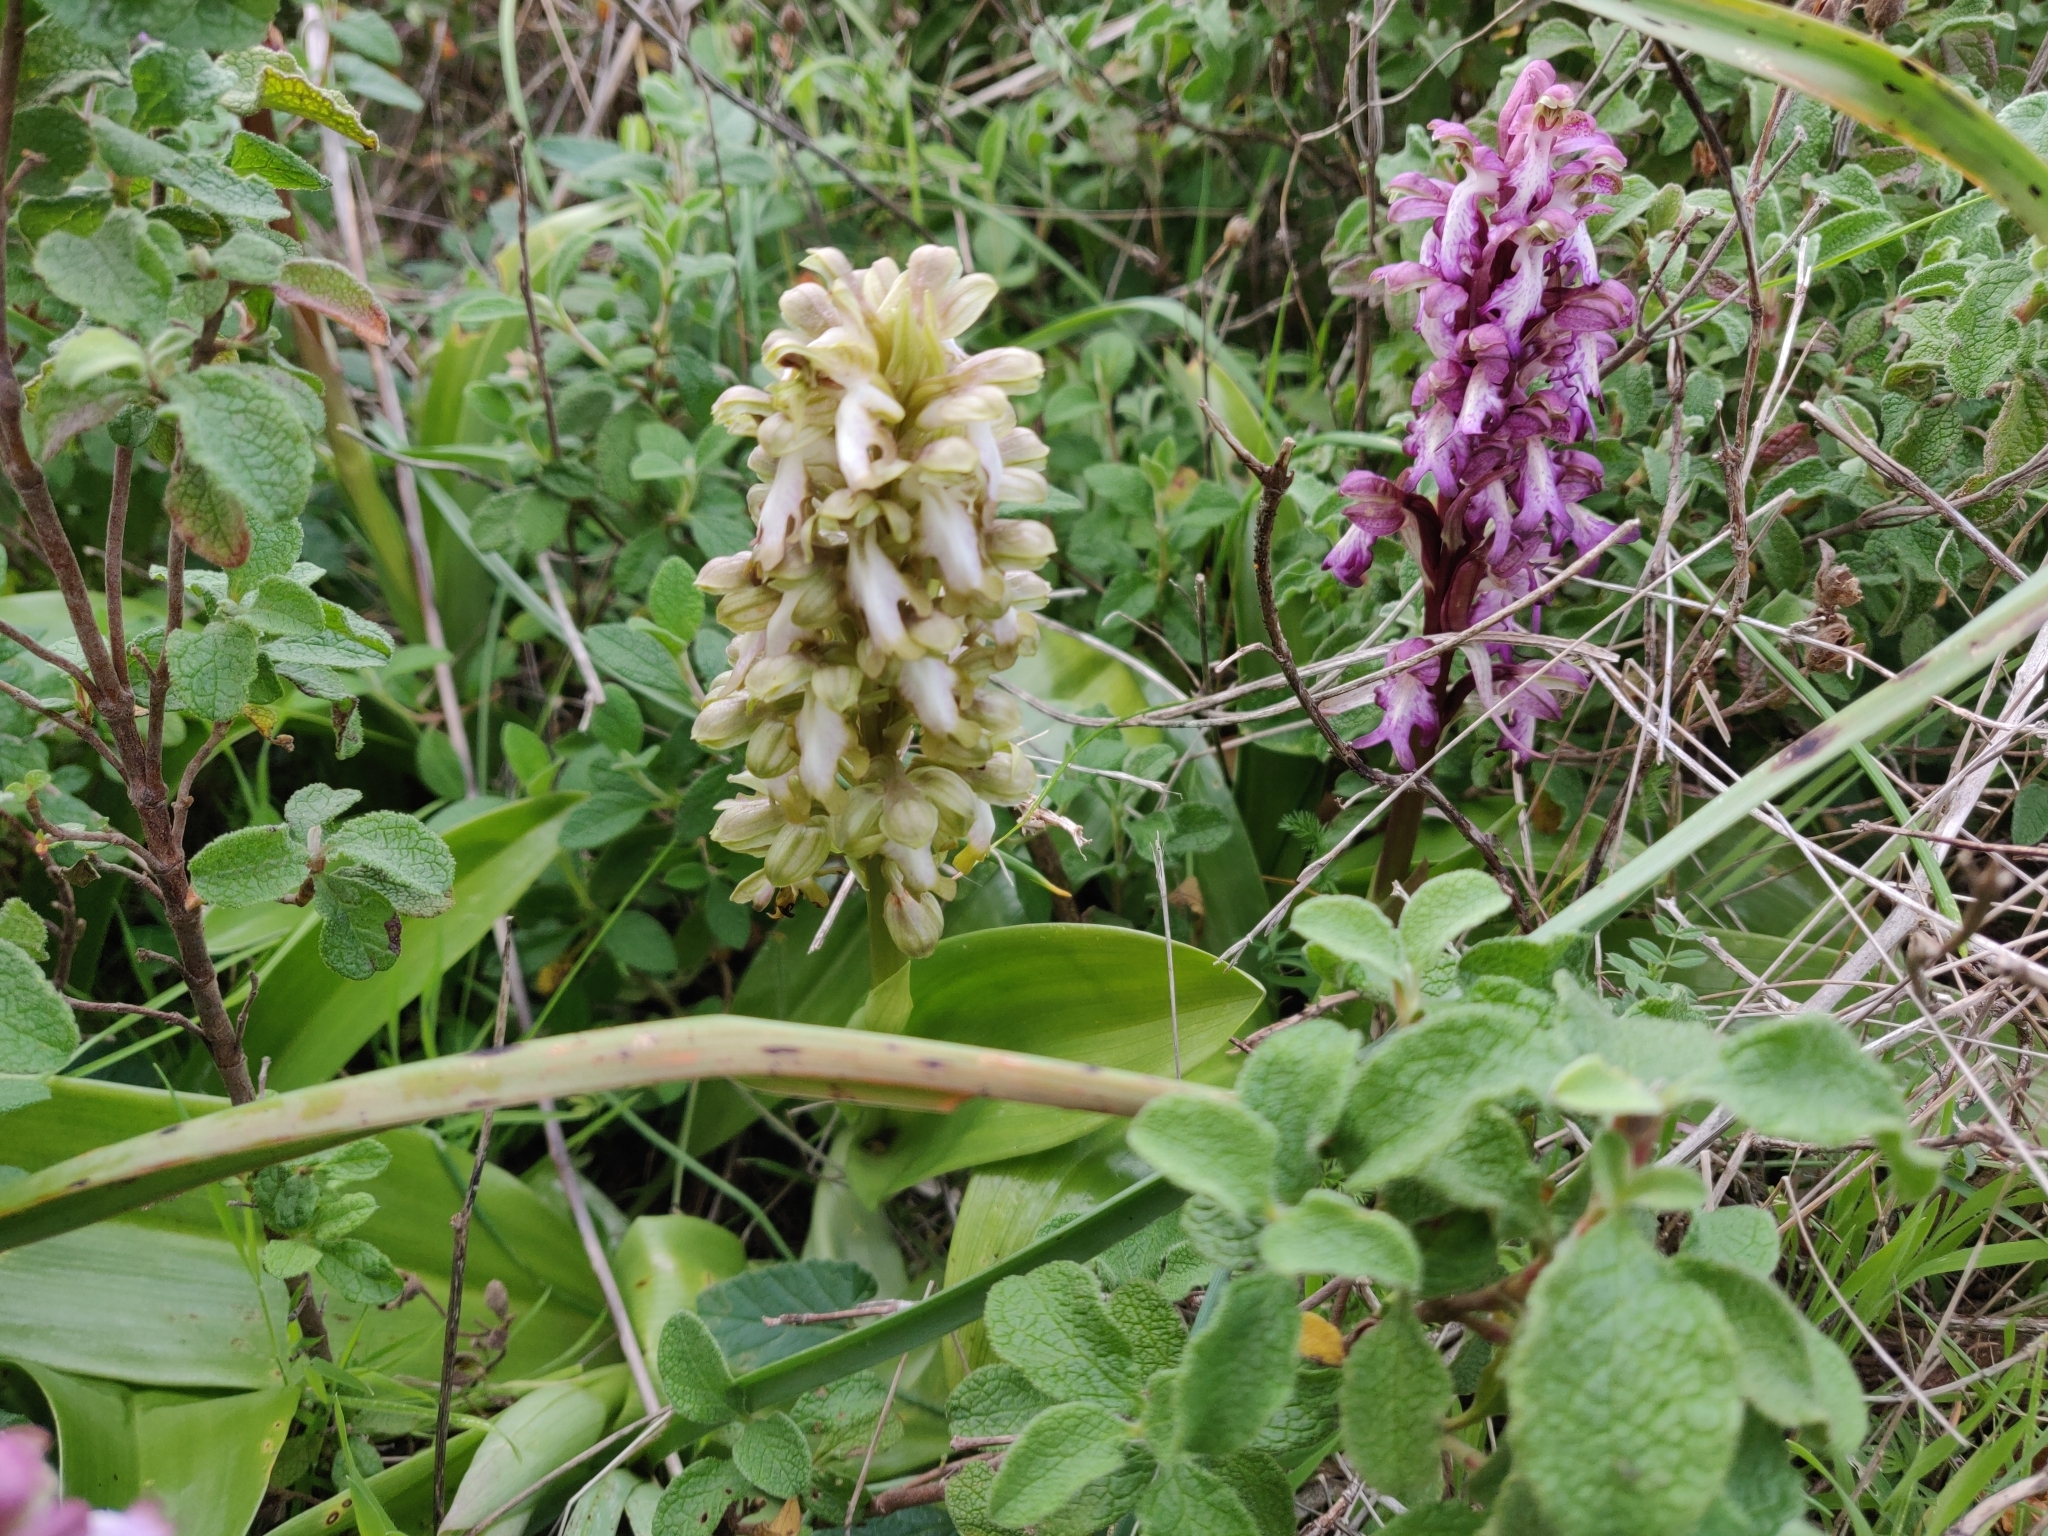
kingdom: Plantae
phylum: Tracheophyta
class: Liliopsida
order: Asparagales
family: Orchidaceae
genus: Himantoglossum
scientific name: Himantoglossum robertianum
